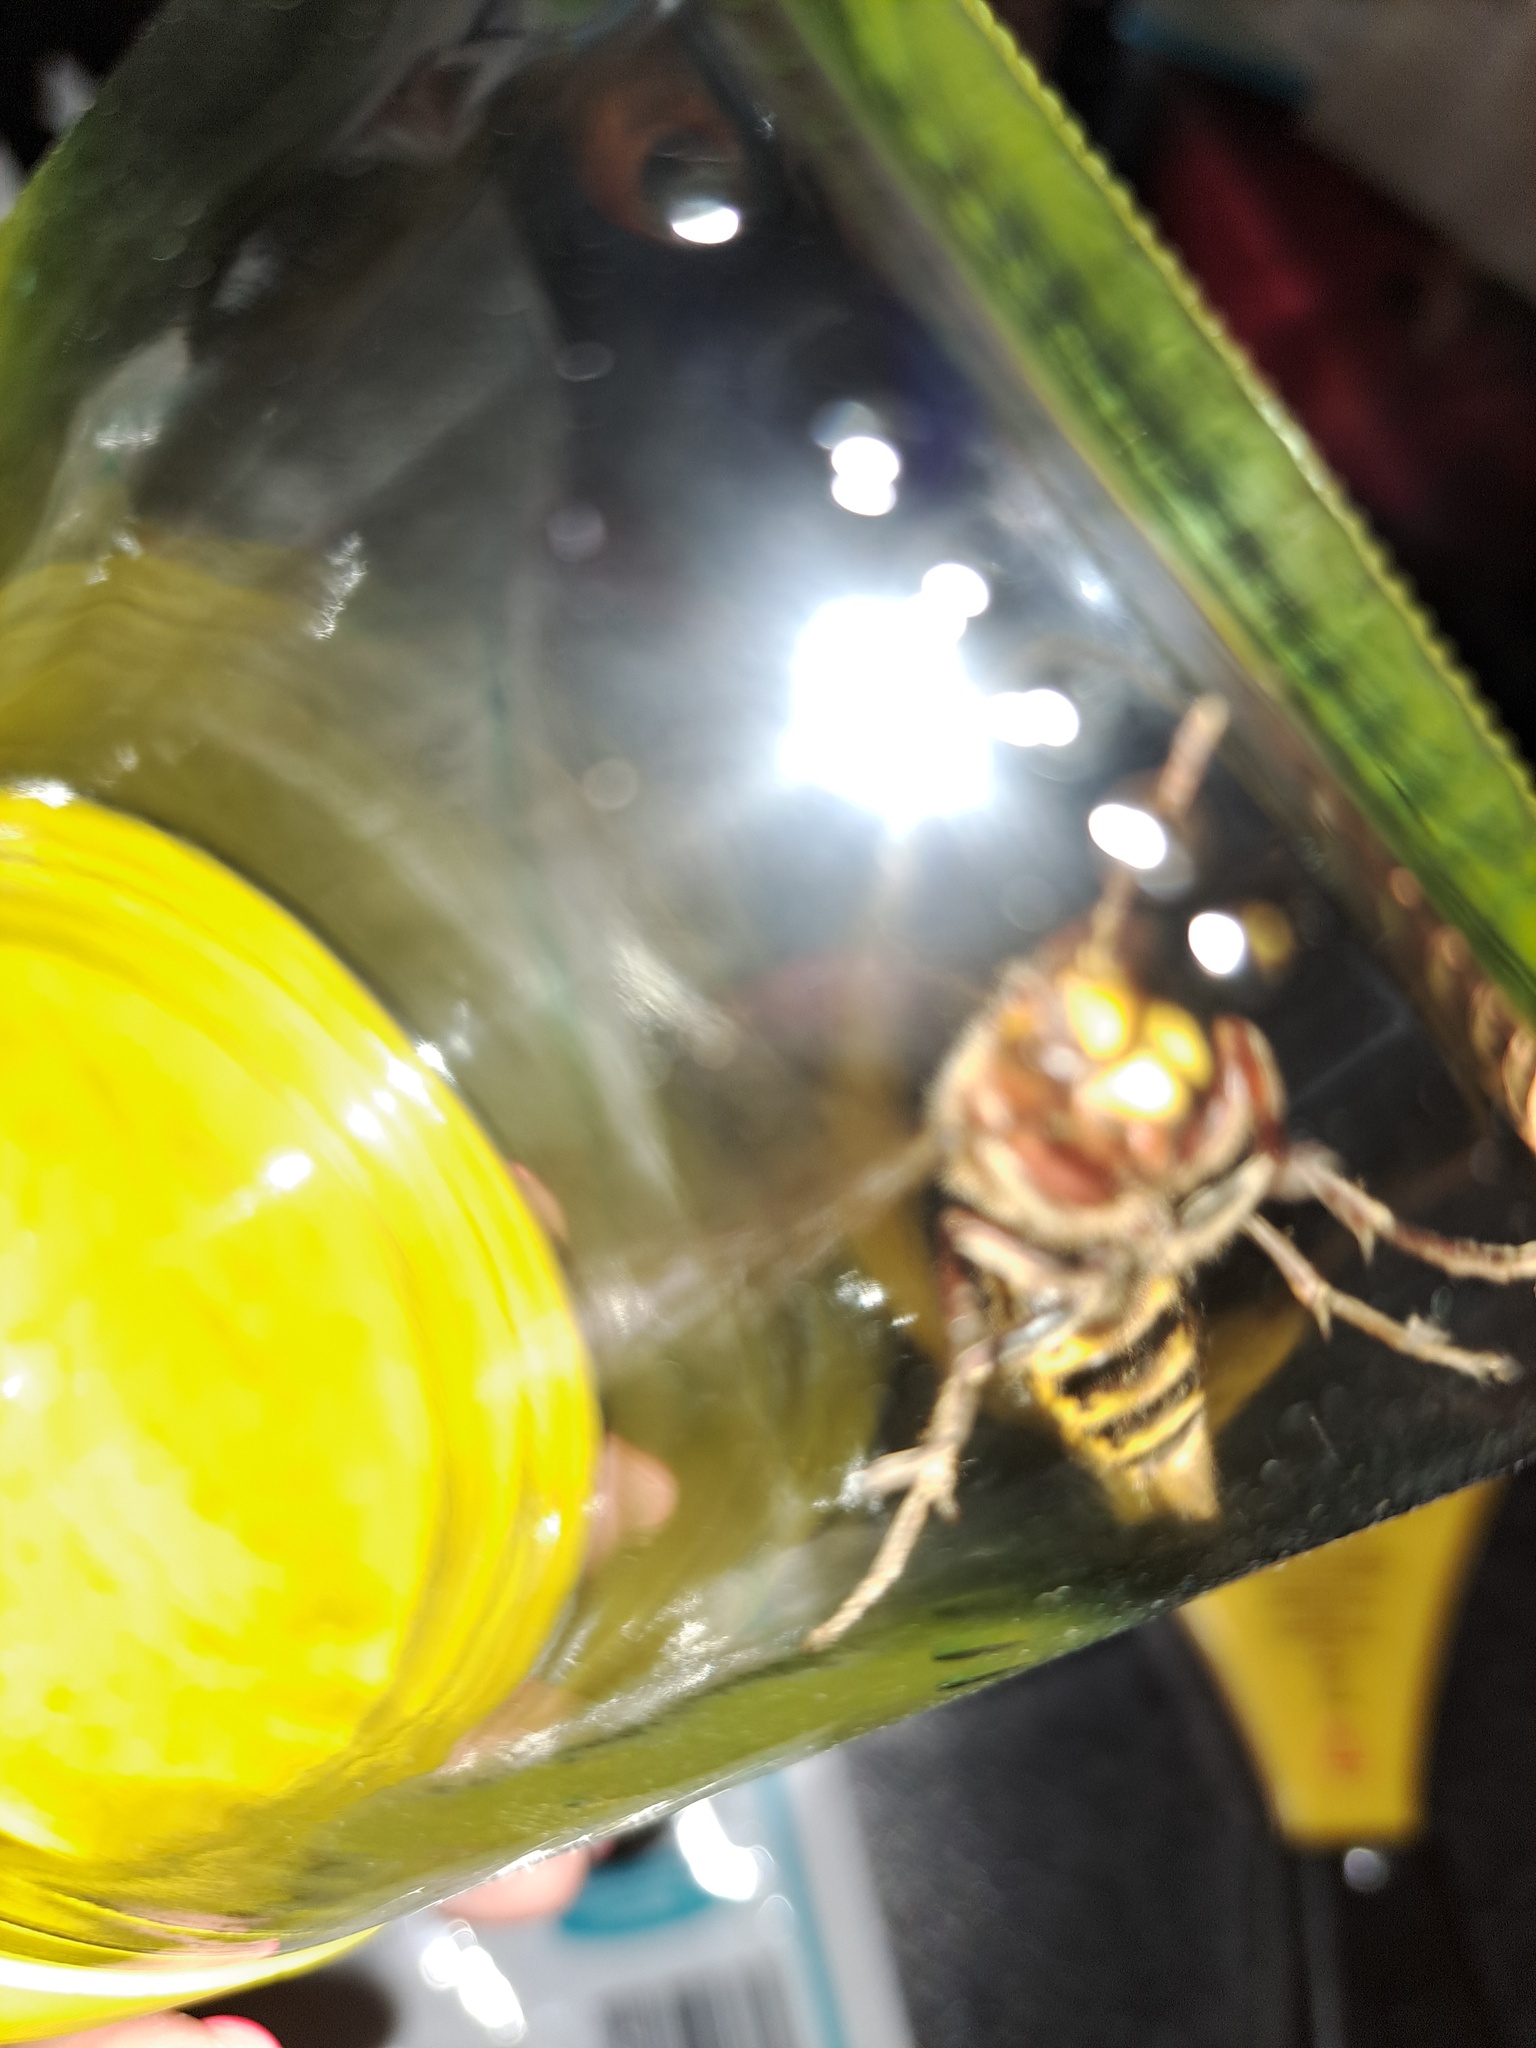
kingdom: Animalia
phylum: Arthropoda
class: Insecta
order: Hymenoptera
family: Vespidae
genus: Vespa
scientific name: Vespa crabro
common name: Hornet
